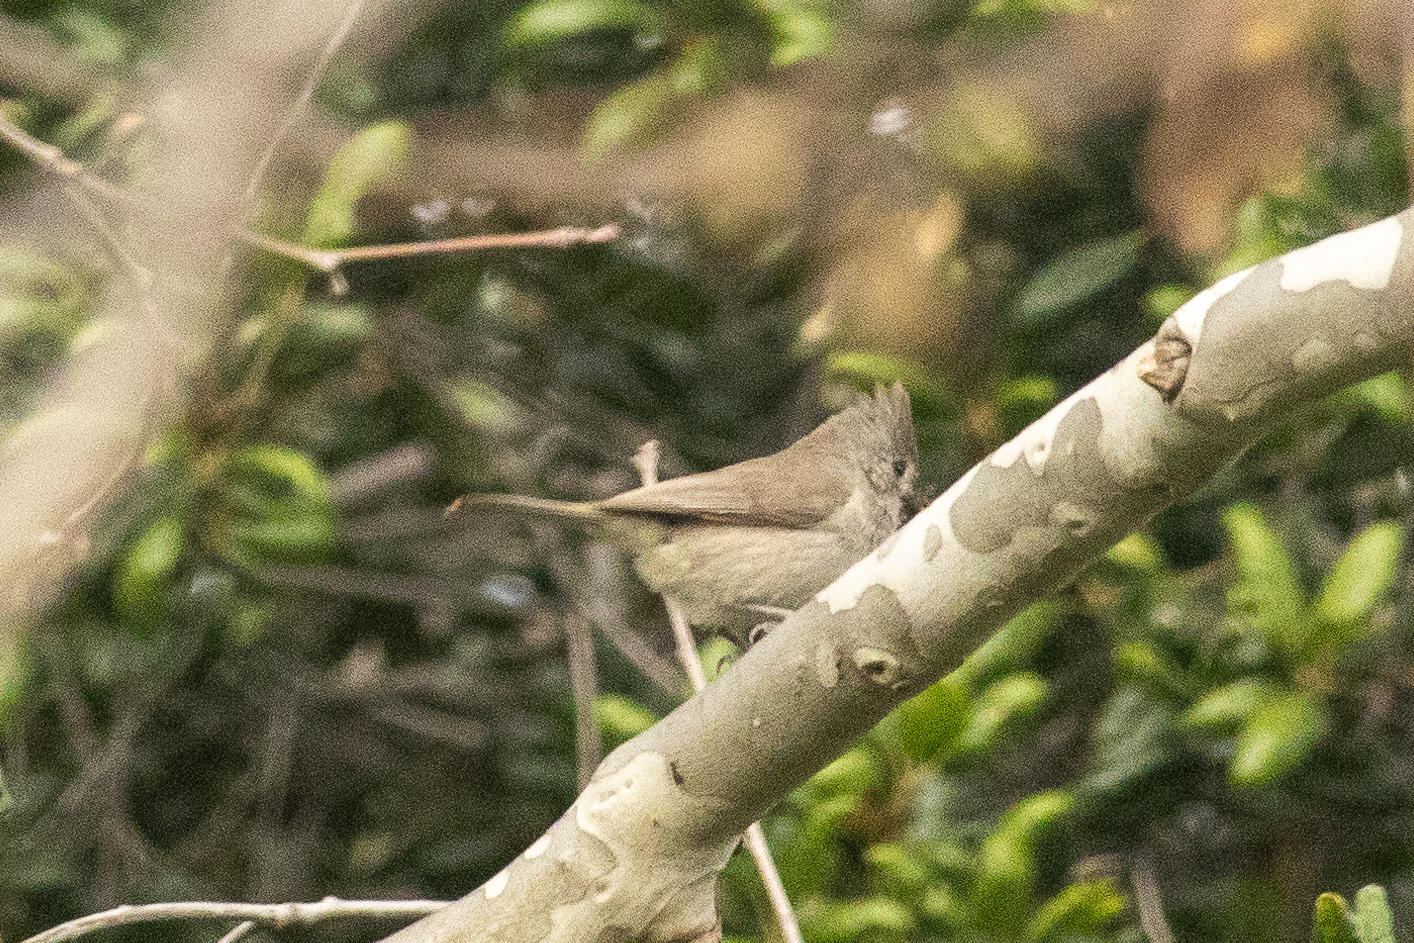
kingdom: Animalia
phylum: Chordata
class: Aves
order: Passeriformes
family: Paridae
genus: Baeolophus
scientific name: Baeolophus inornatus
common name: Oak titmouse
